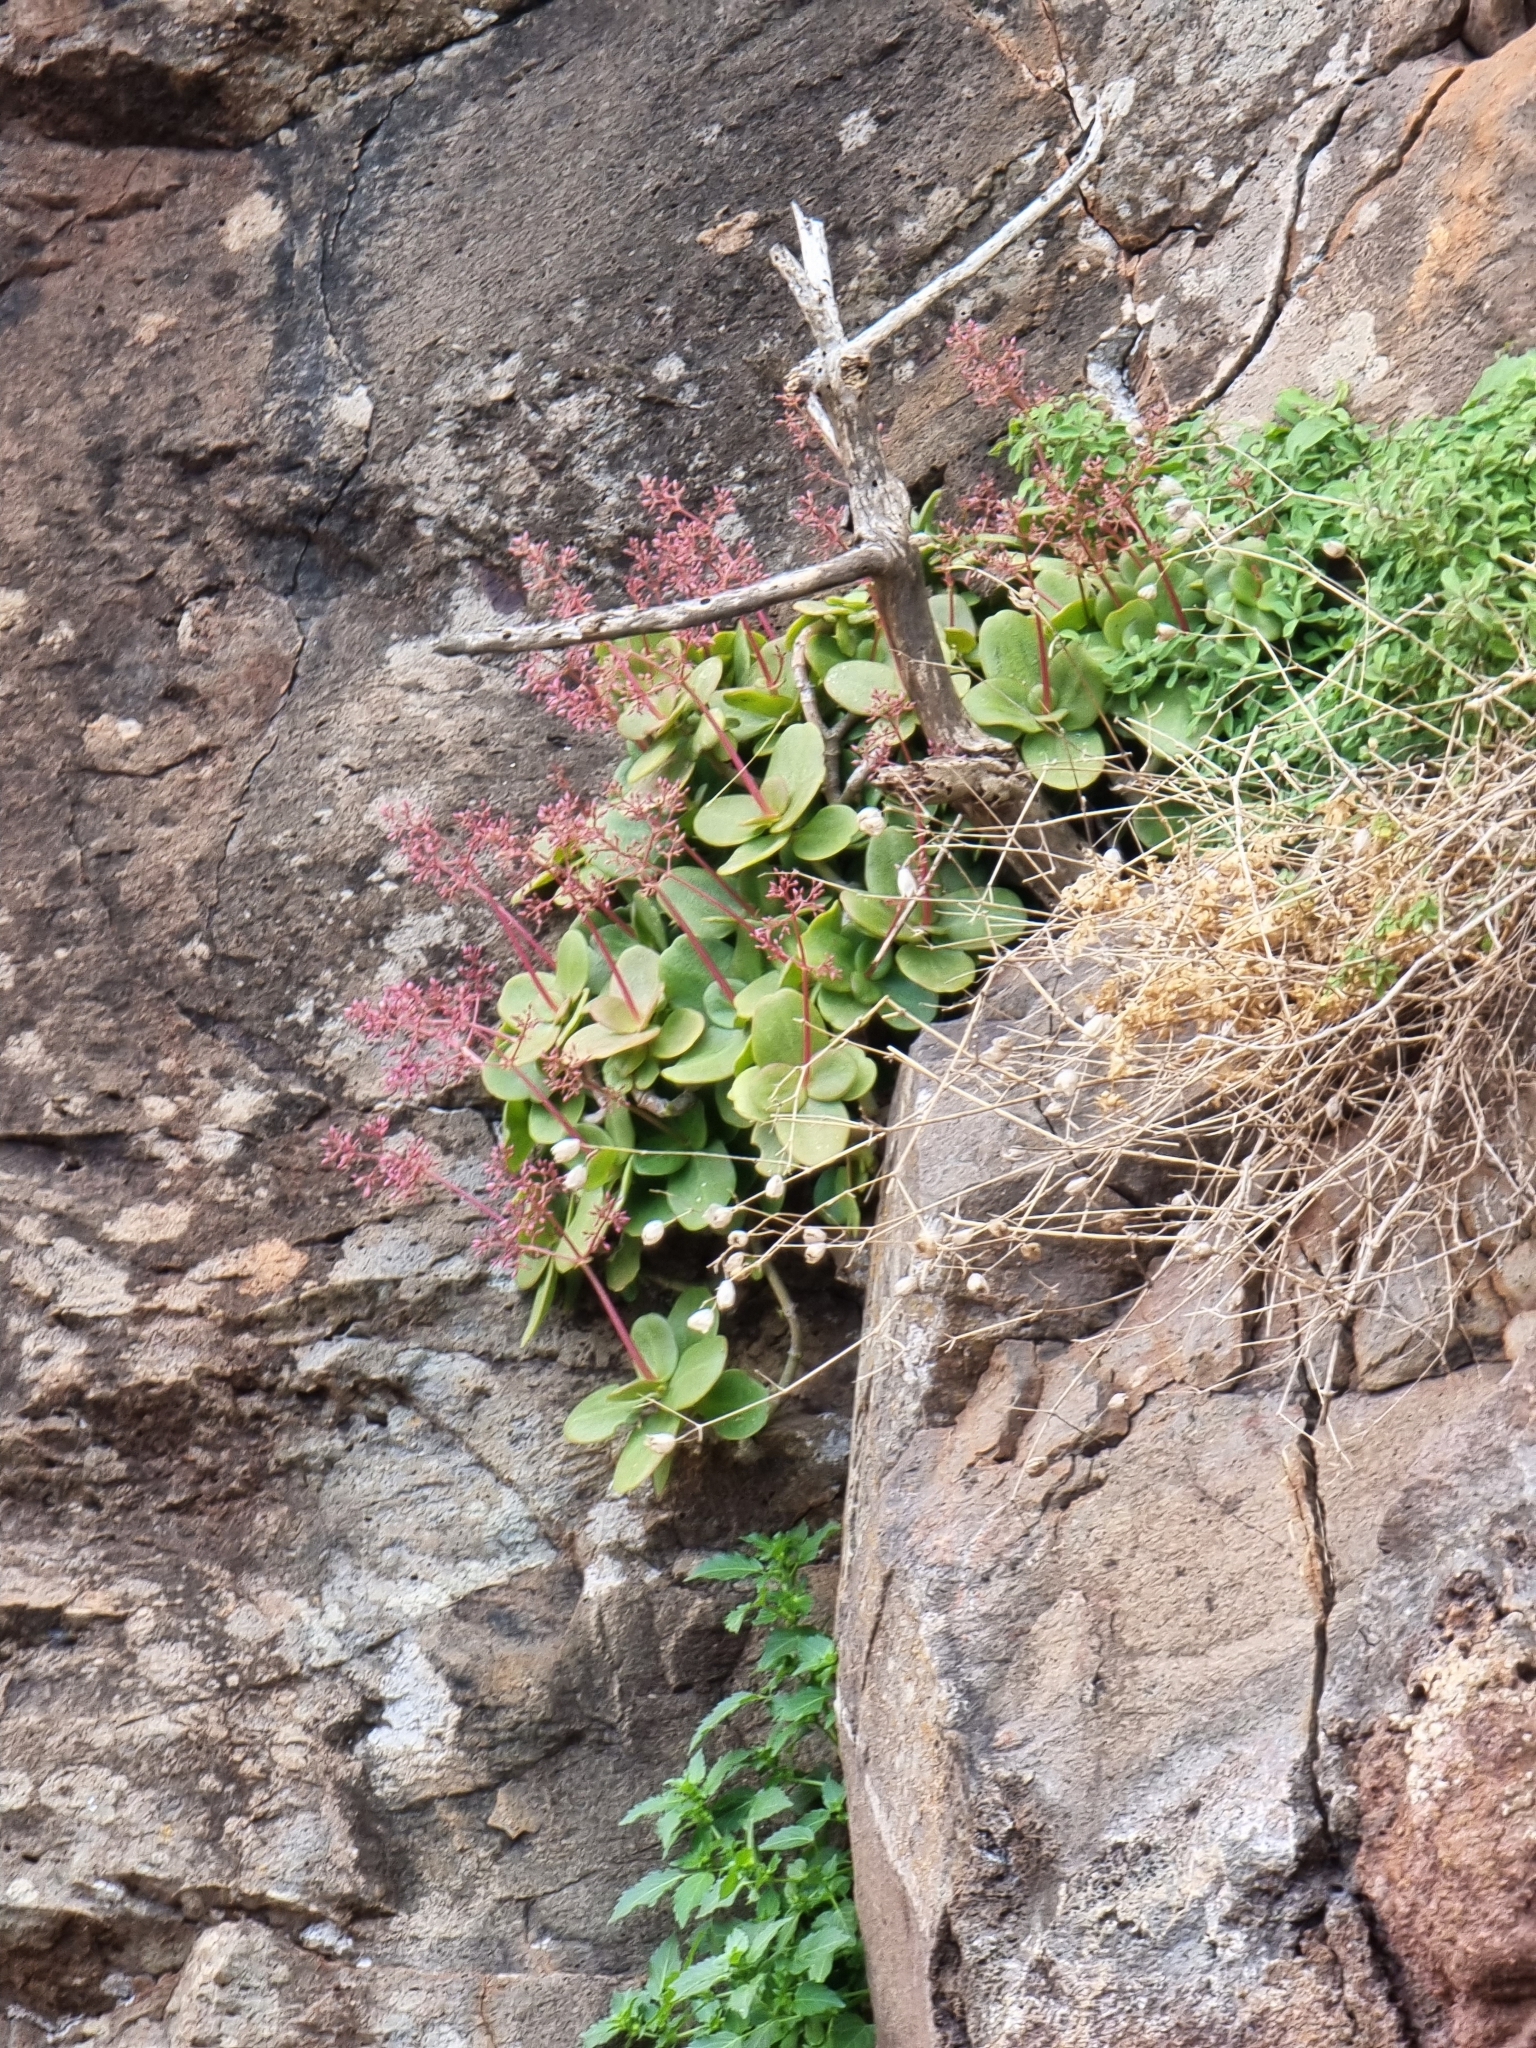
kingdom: Plantae
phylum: Tracheophyta
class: Magnoliopsida
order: Saxifragales
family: Crassulaceae
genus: Crassula
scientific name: Crassula multicava
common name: Cape province pygmyweed
